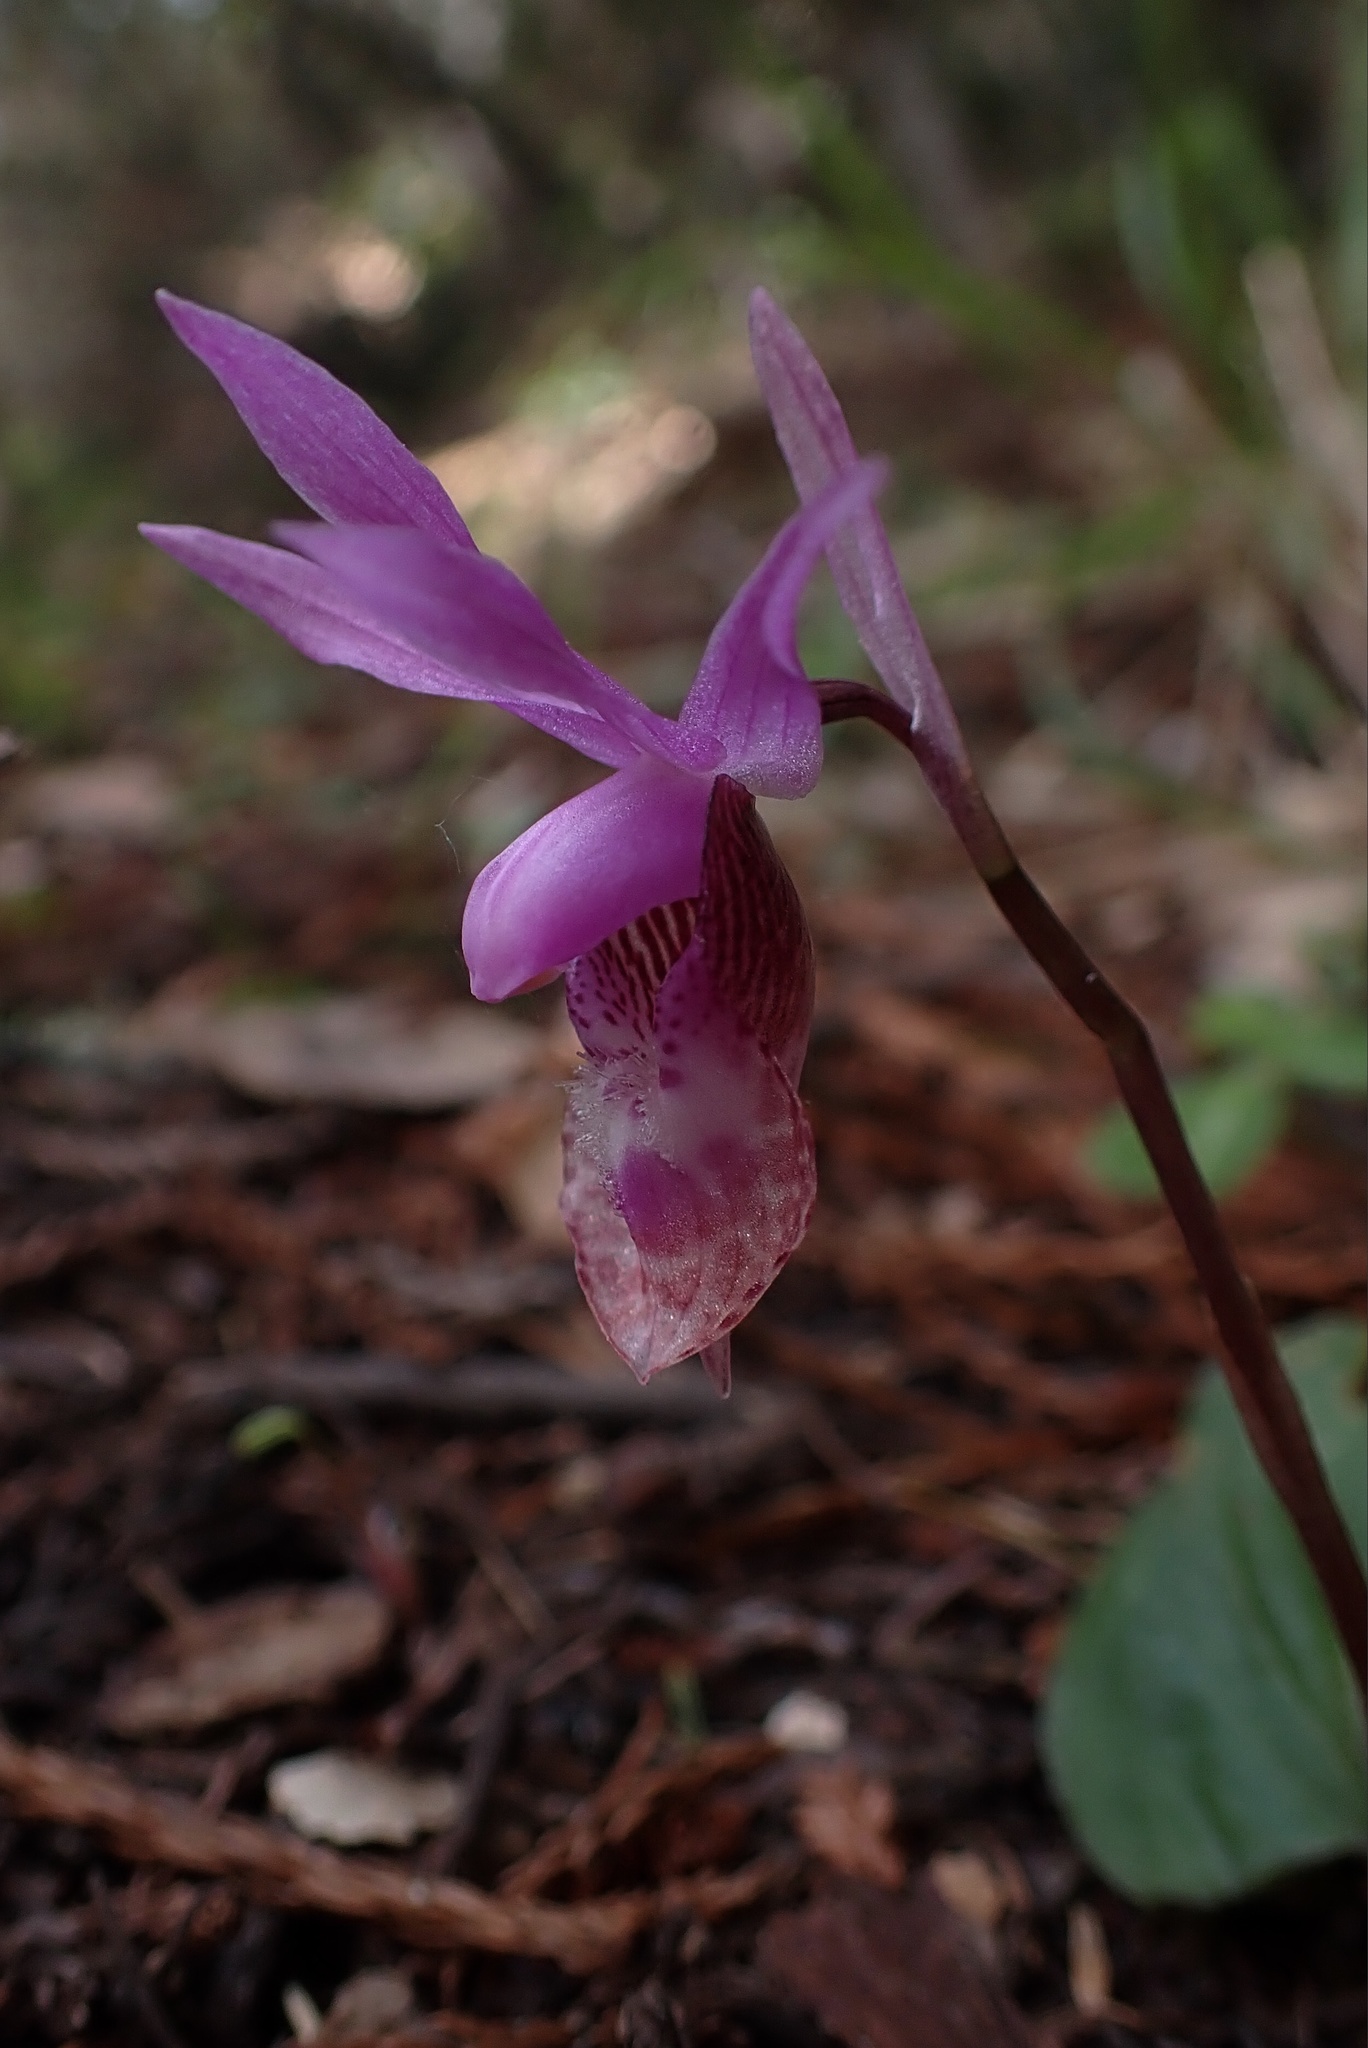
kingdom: Plantae
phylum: Tracheophyta
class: Liliopsida
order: Asparagales
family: Orchidaceae
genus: Calypso
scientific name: Calypso bulbosa
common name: Calypso
